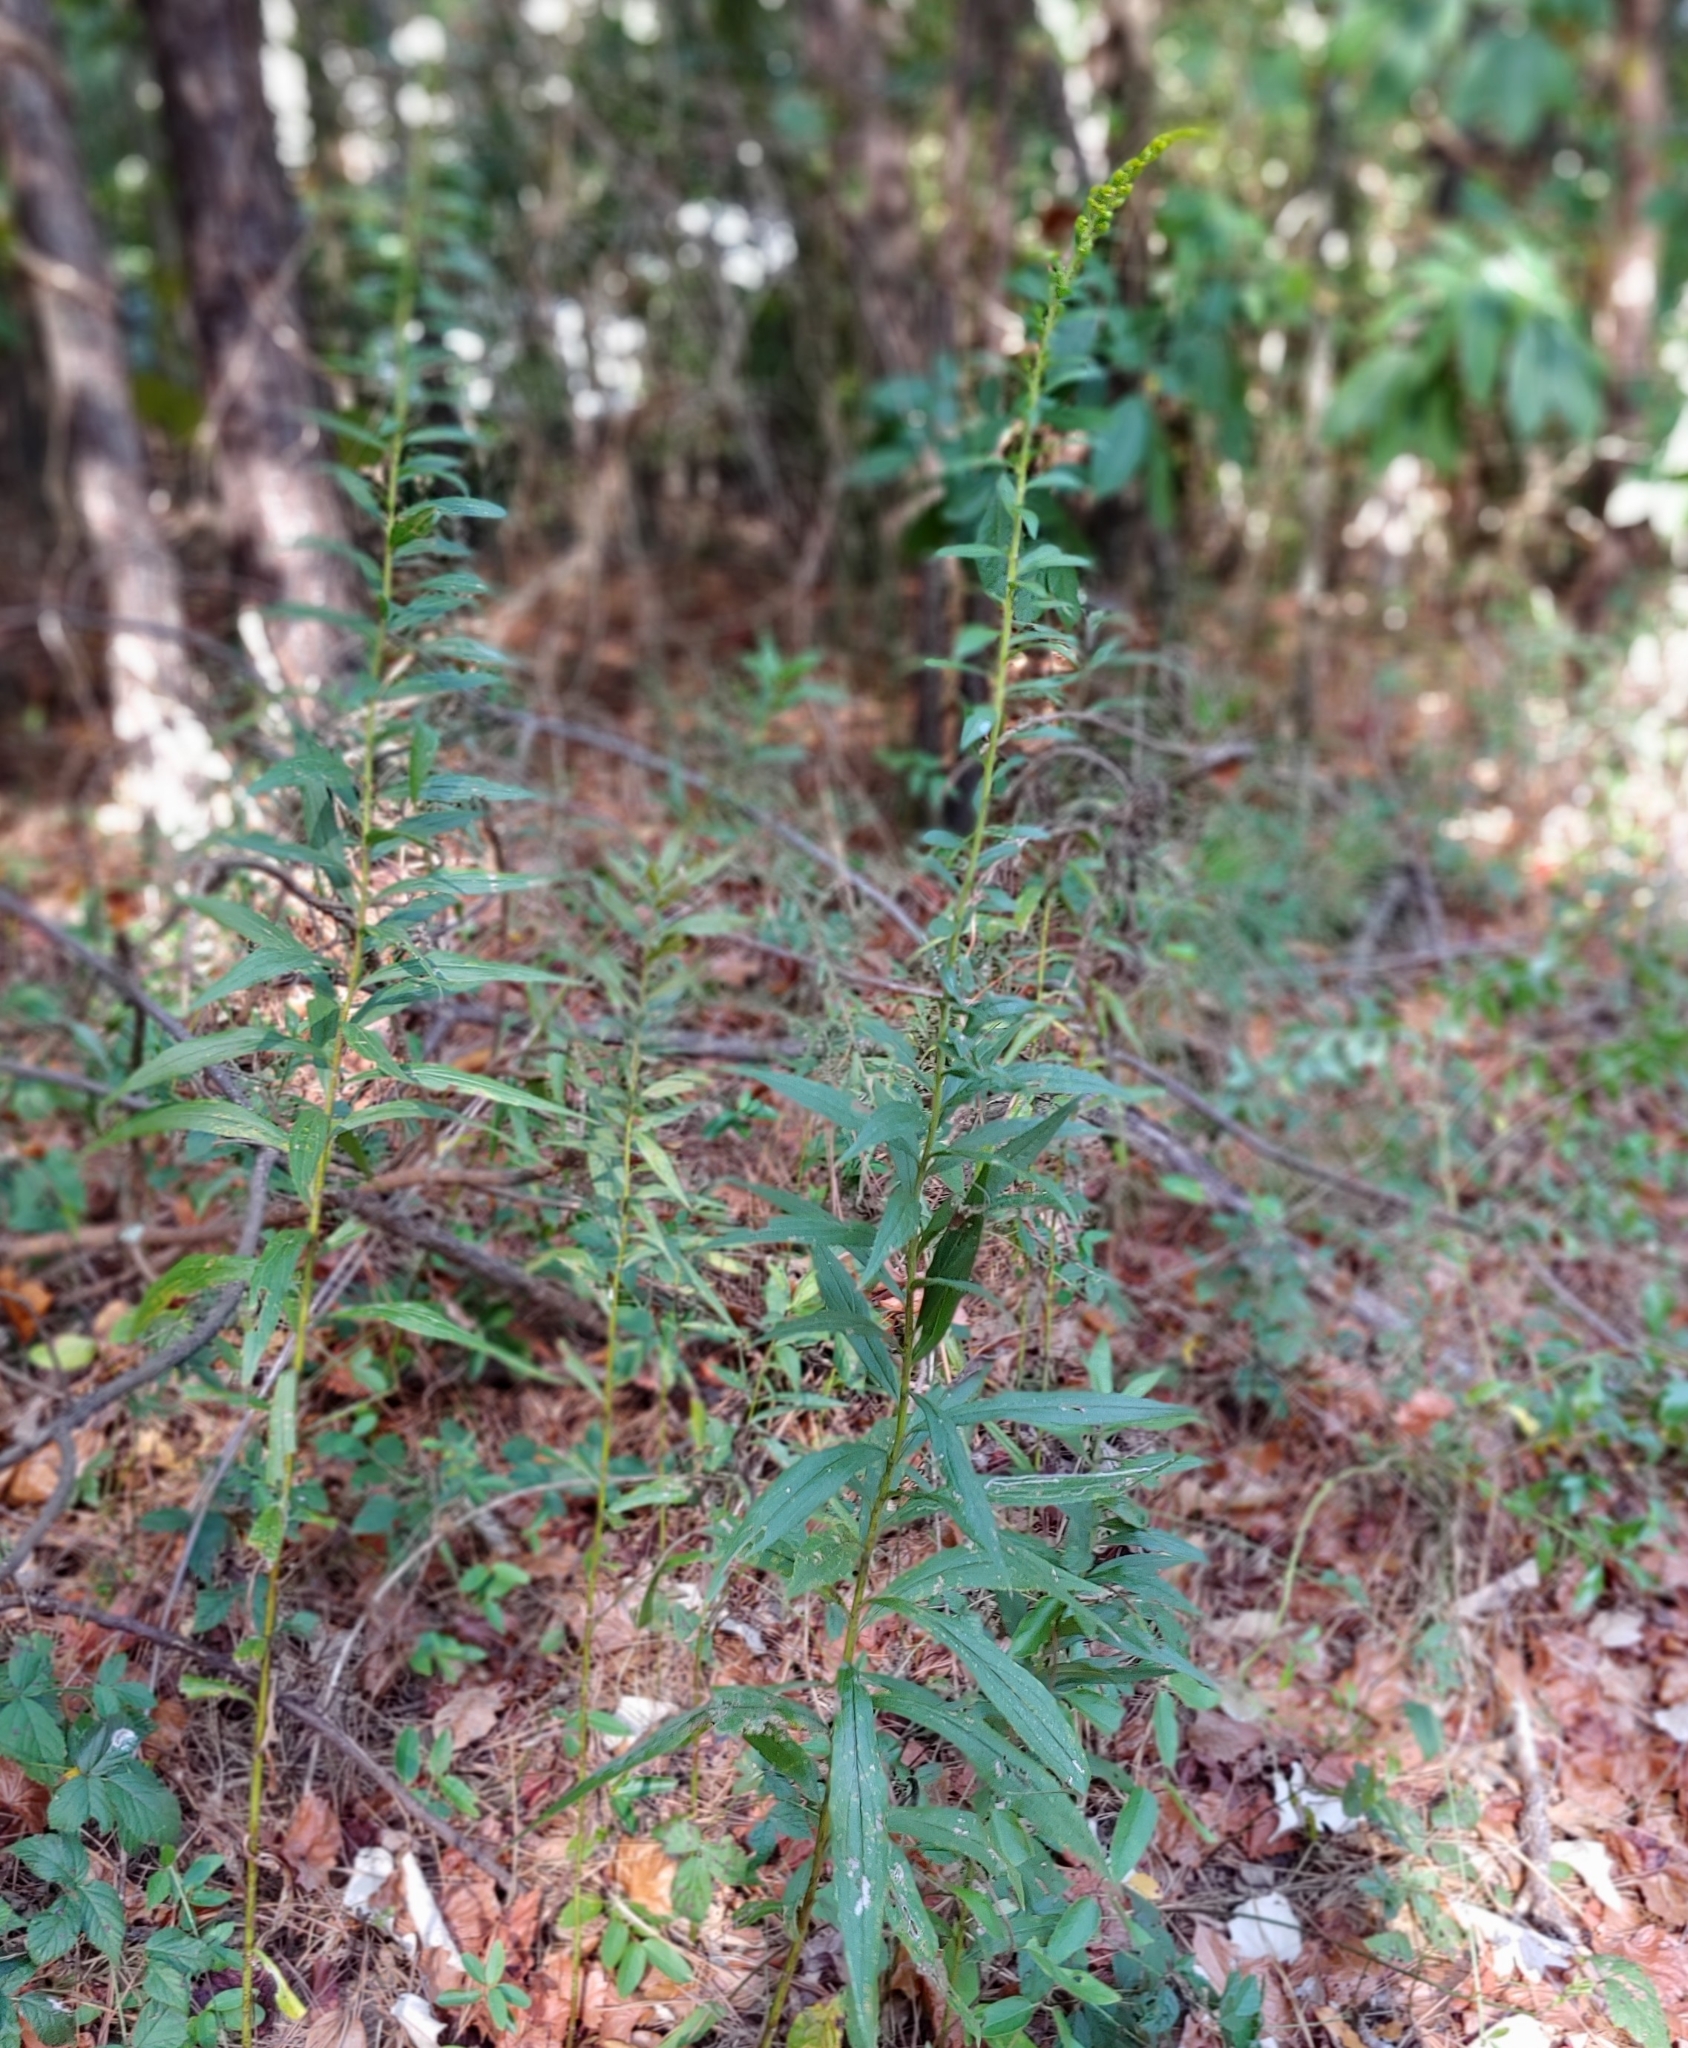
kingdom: Plantae
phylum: Tracheophyta
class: Magnoliopsida
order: Asterales
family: Asteraceae
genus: Solidago
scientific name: Solidago altissima
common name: Late goldenrod
